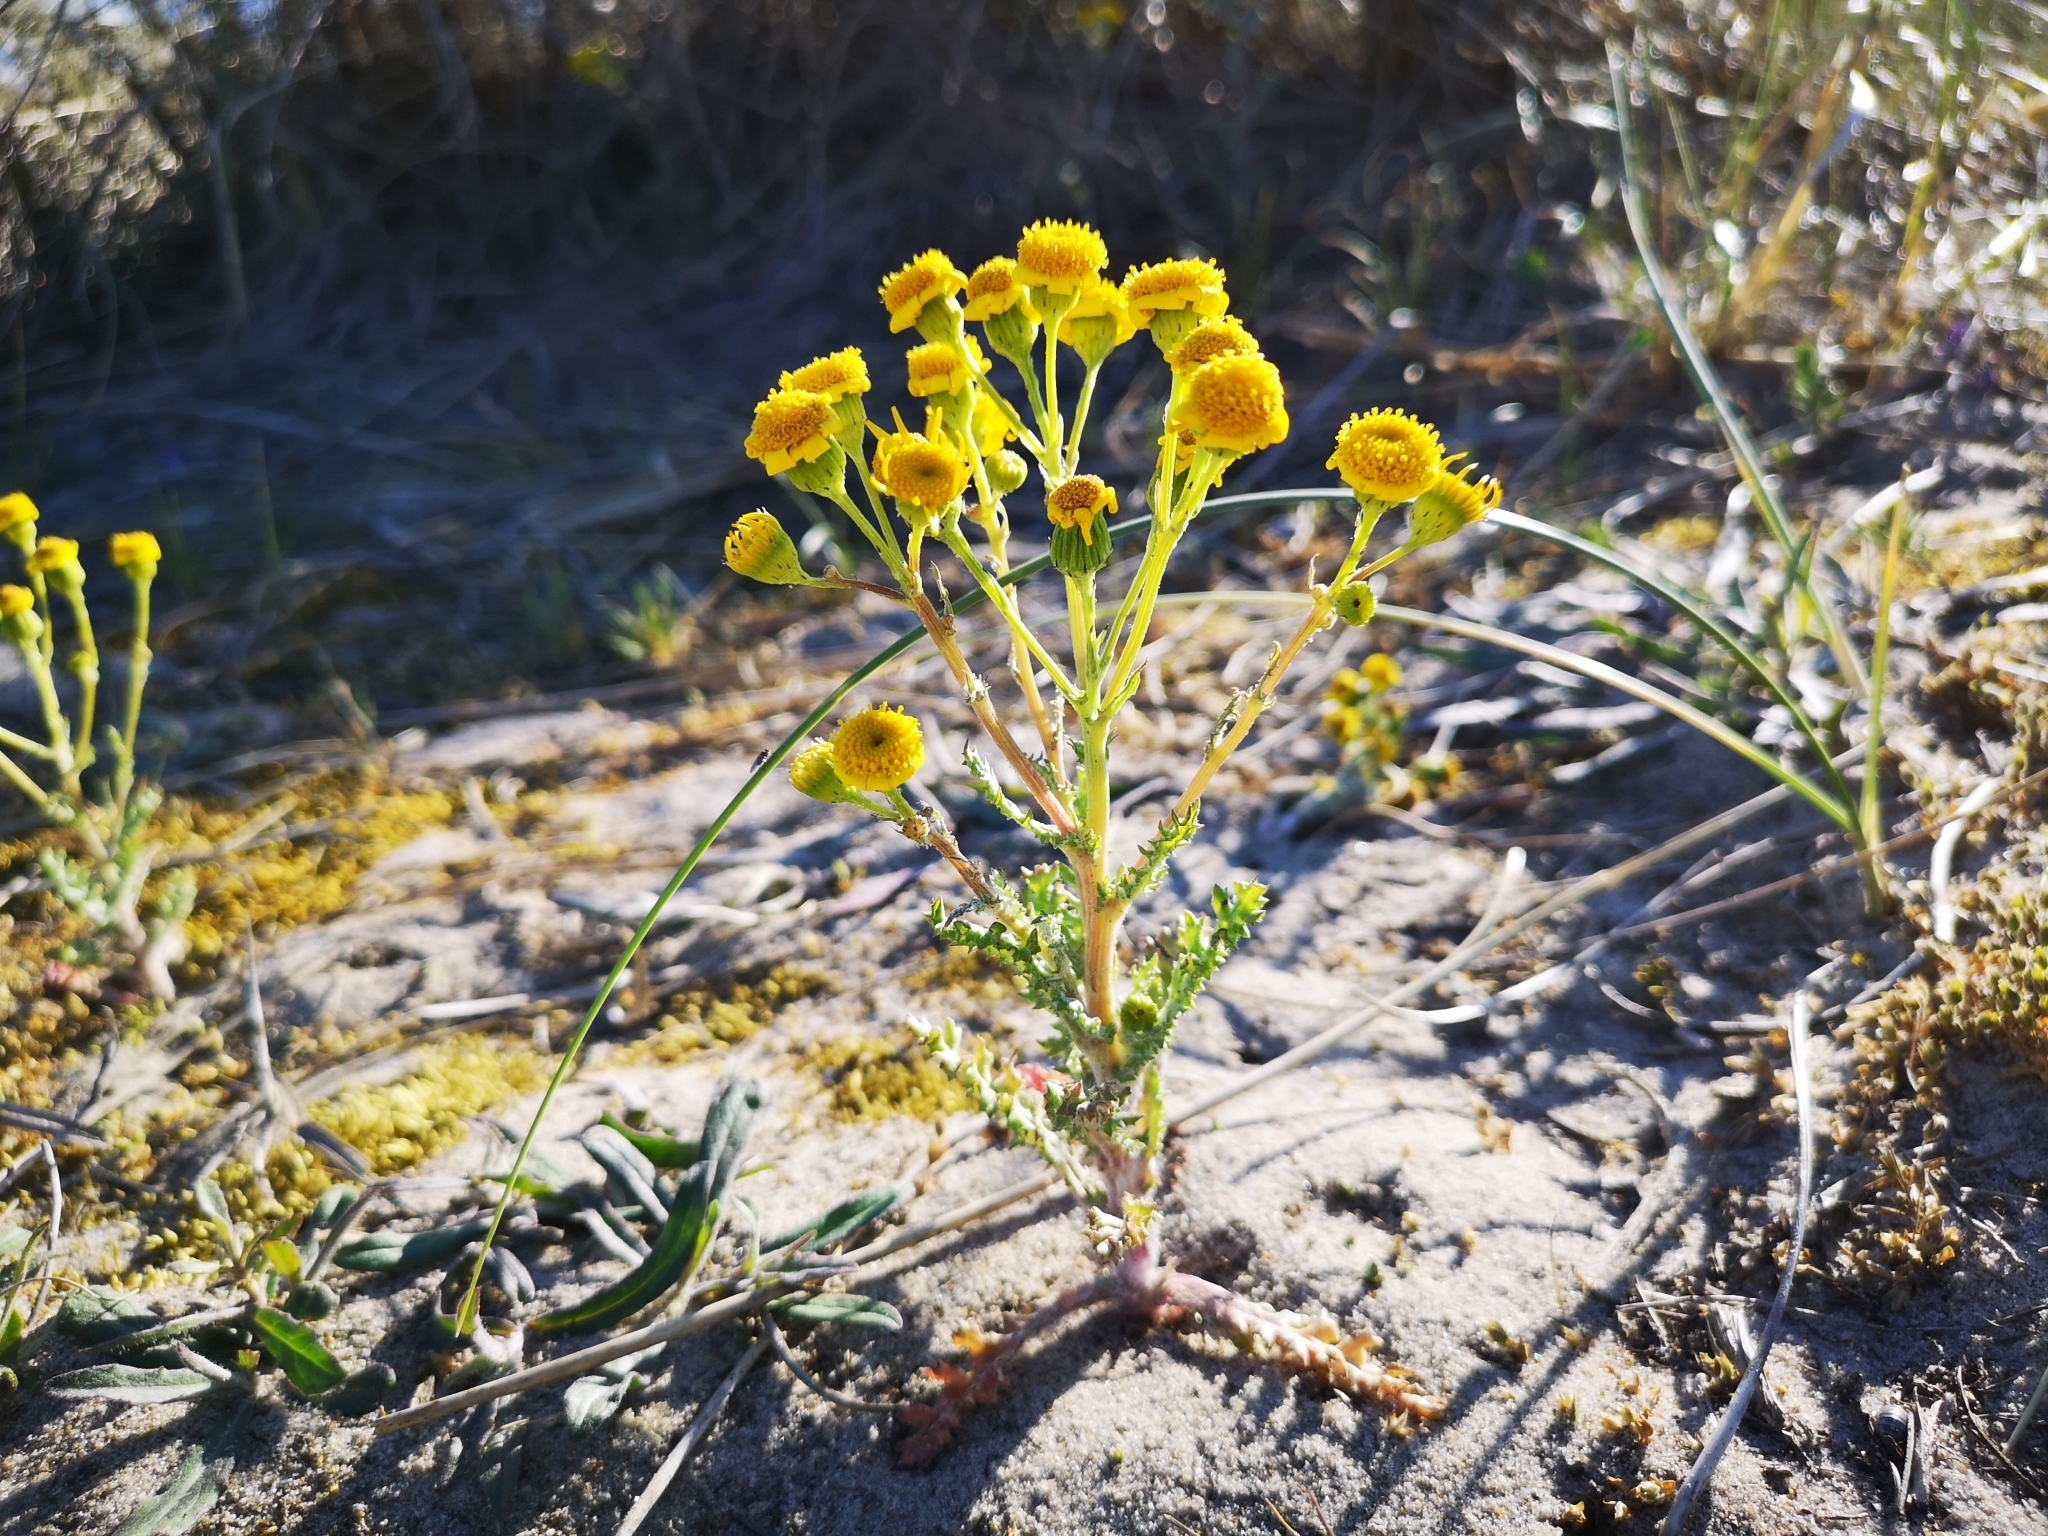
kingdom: Plantae
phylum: Tracheophyta
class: Magnoliopsida
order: Asterales
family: Asteraceae
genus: Senecio
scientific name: Senecio vernalis
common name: Eastern groundsel
